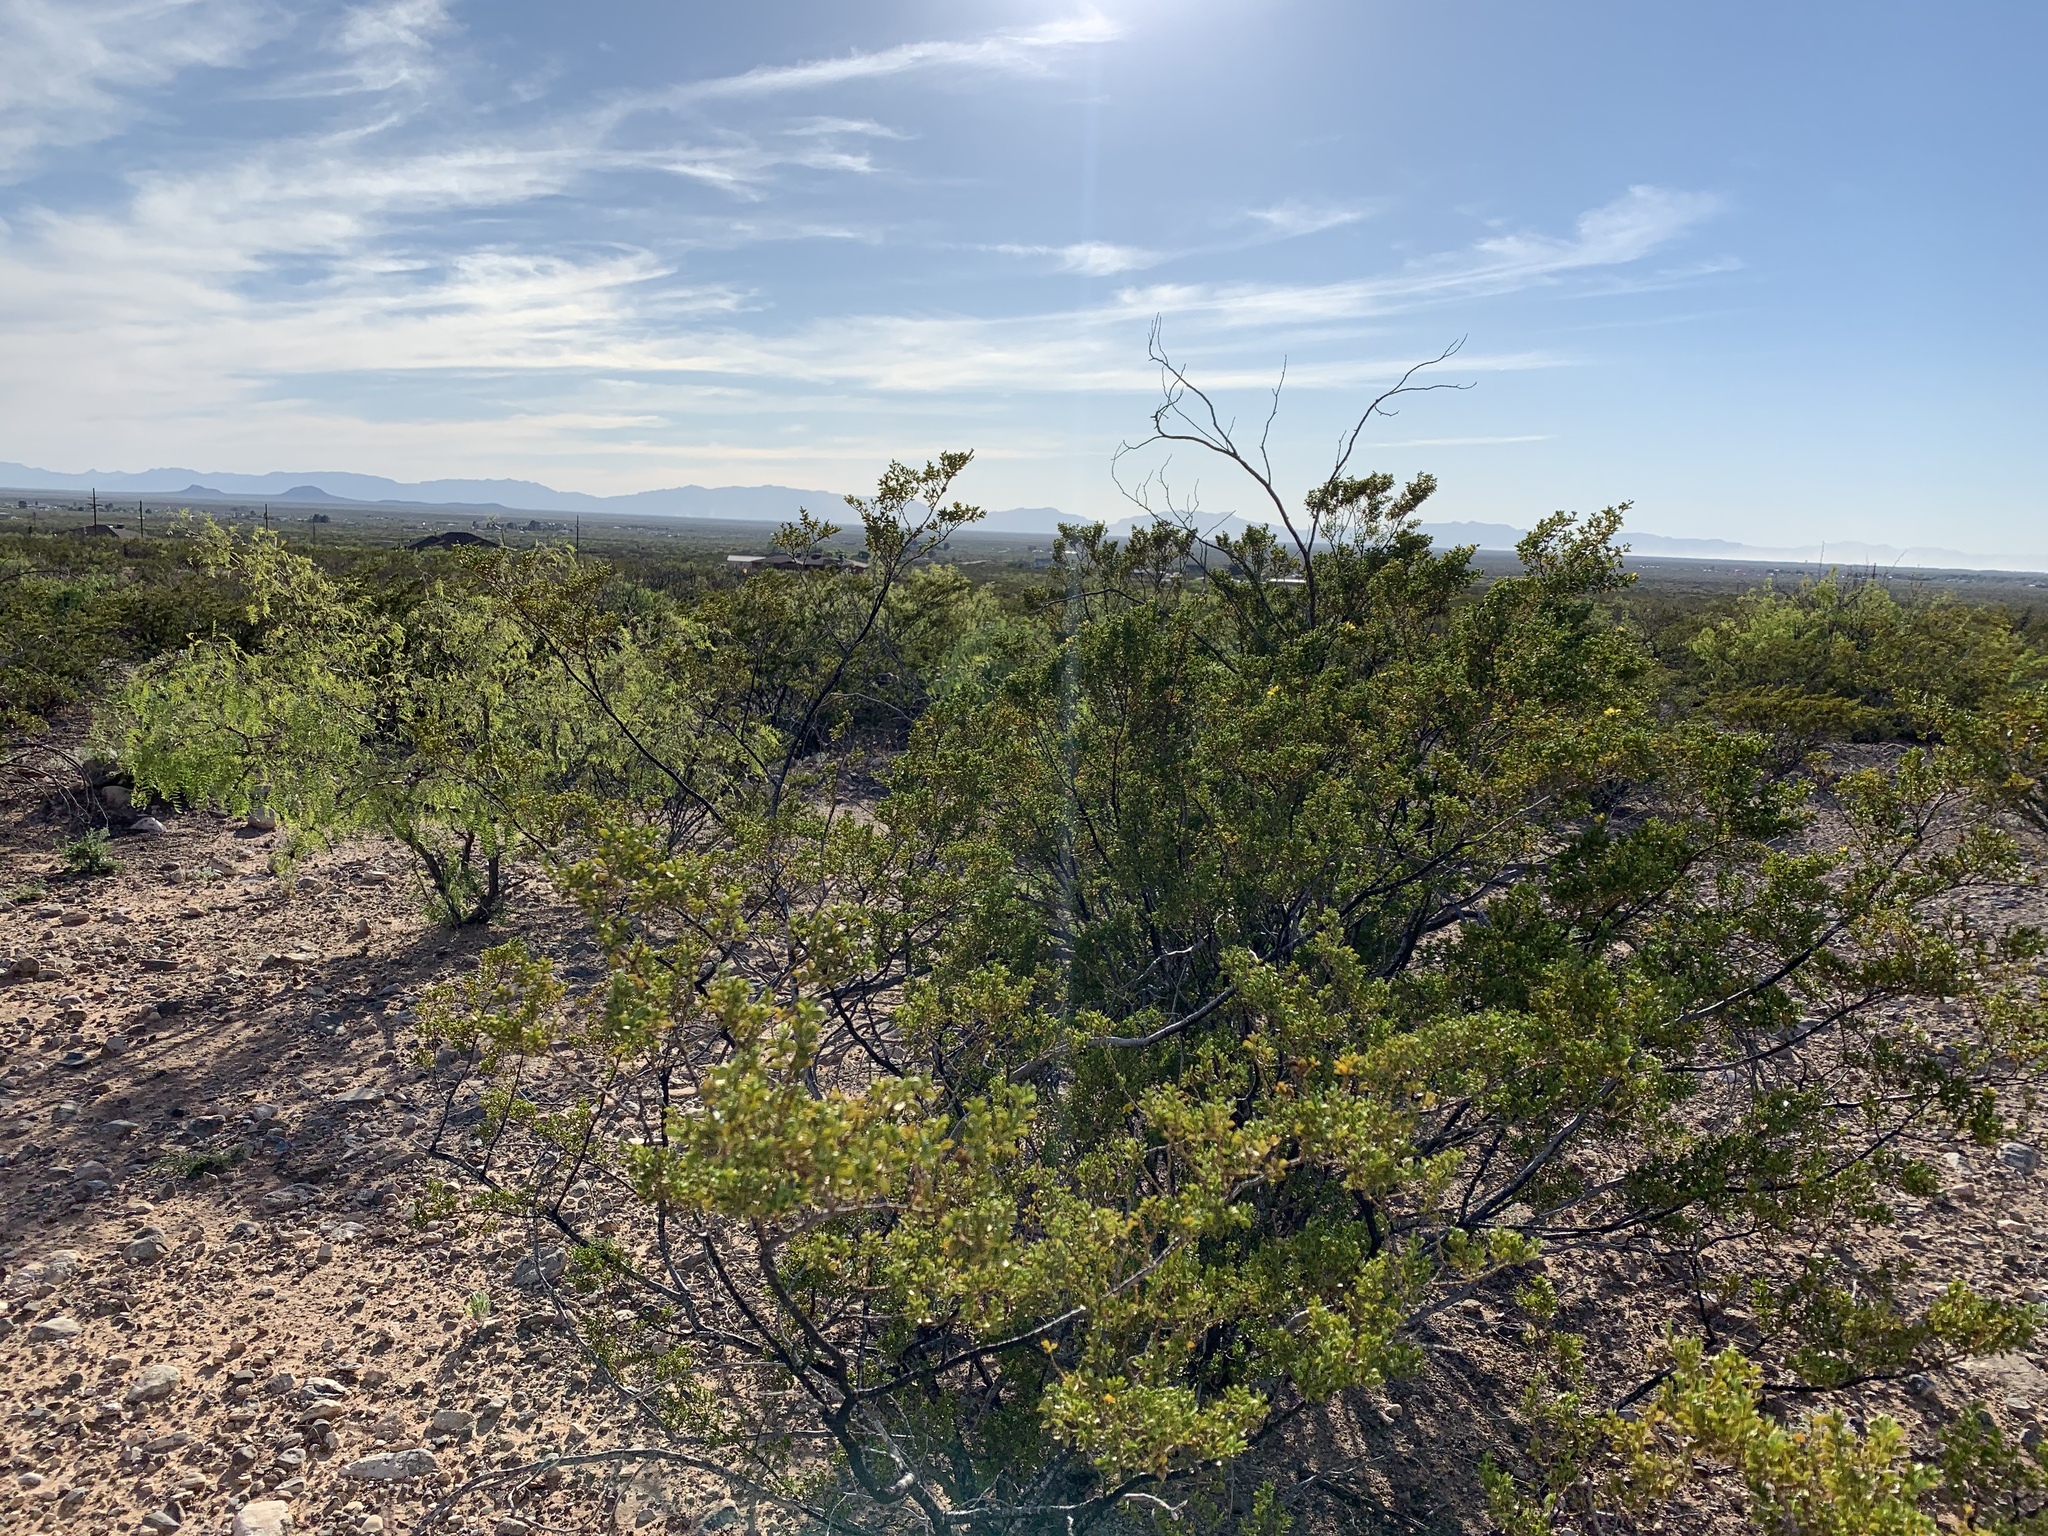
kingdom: Plantae
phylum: Tracheophyta
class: Magnoliopsida
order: Zygophyllales
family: Zygophyllaceae
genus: Larrea
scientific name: Larrea tridentata
